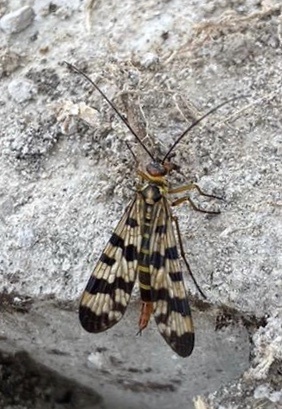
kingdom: Animalia
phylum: Arthropoda
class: Insecta
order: Mecoptera
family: Panorpidae
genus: Panorpa
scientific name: Panorpa meridionalis
